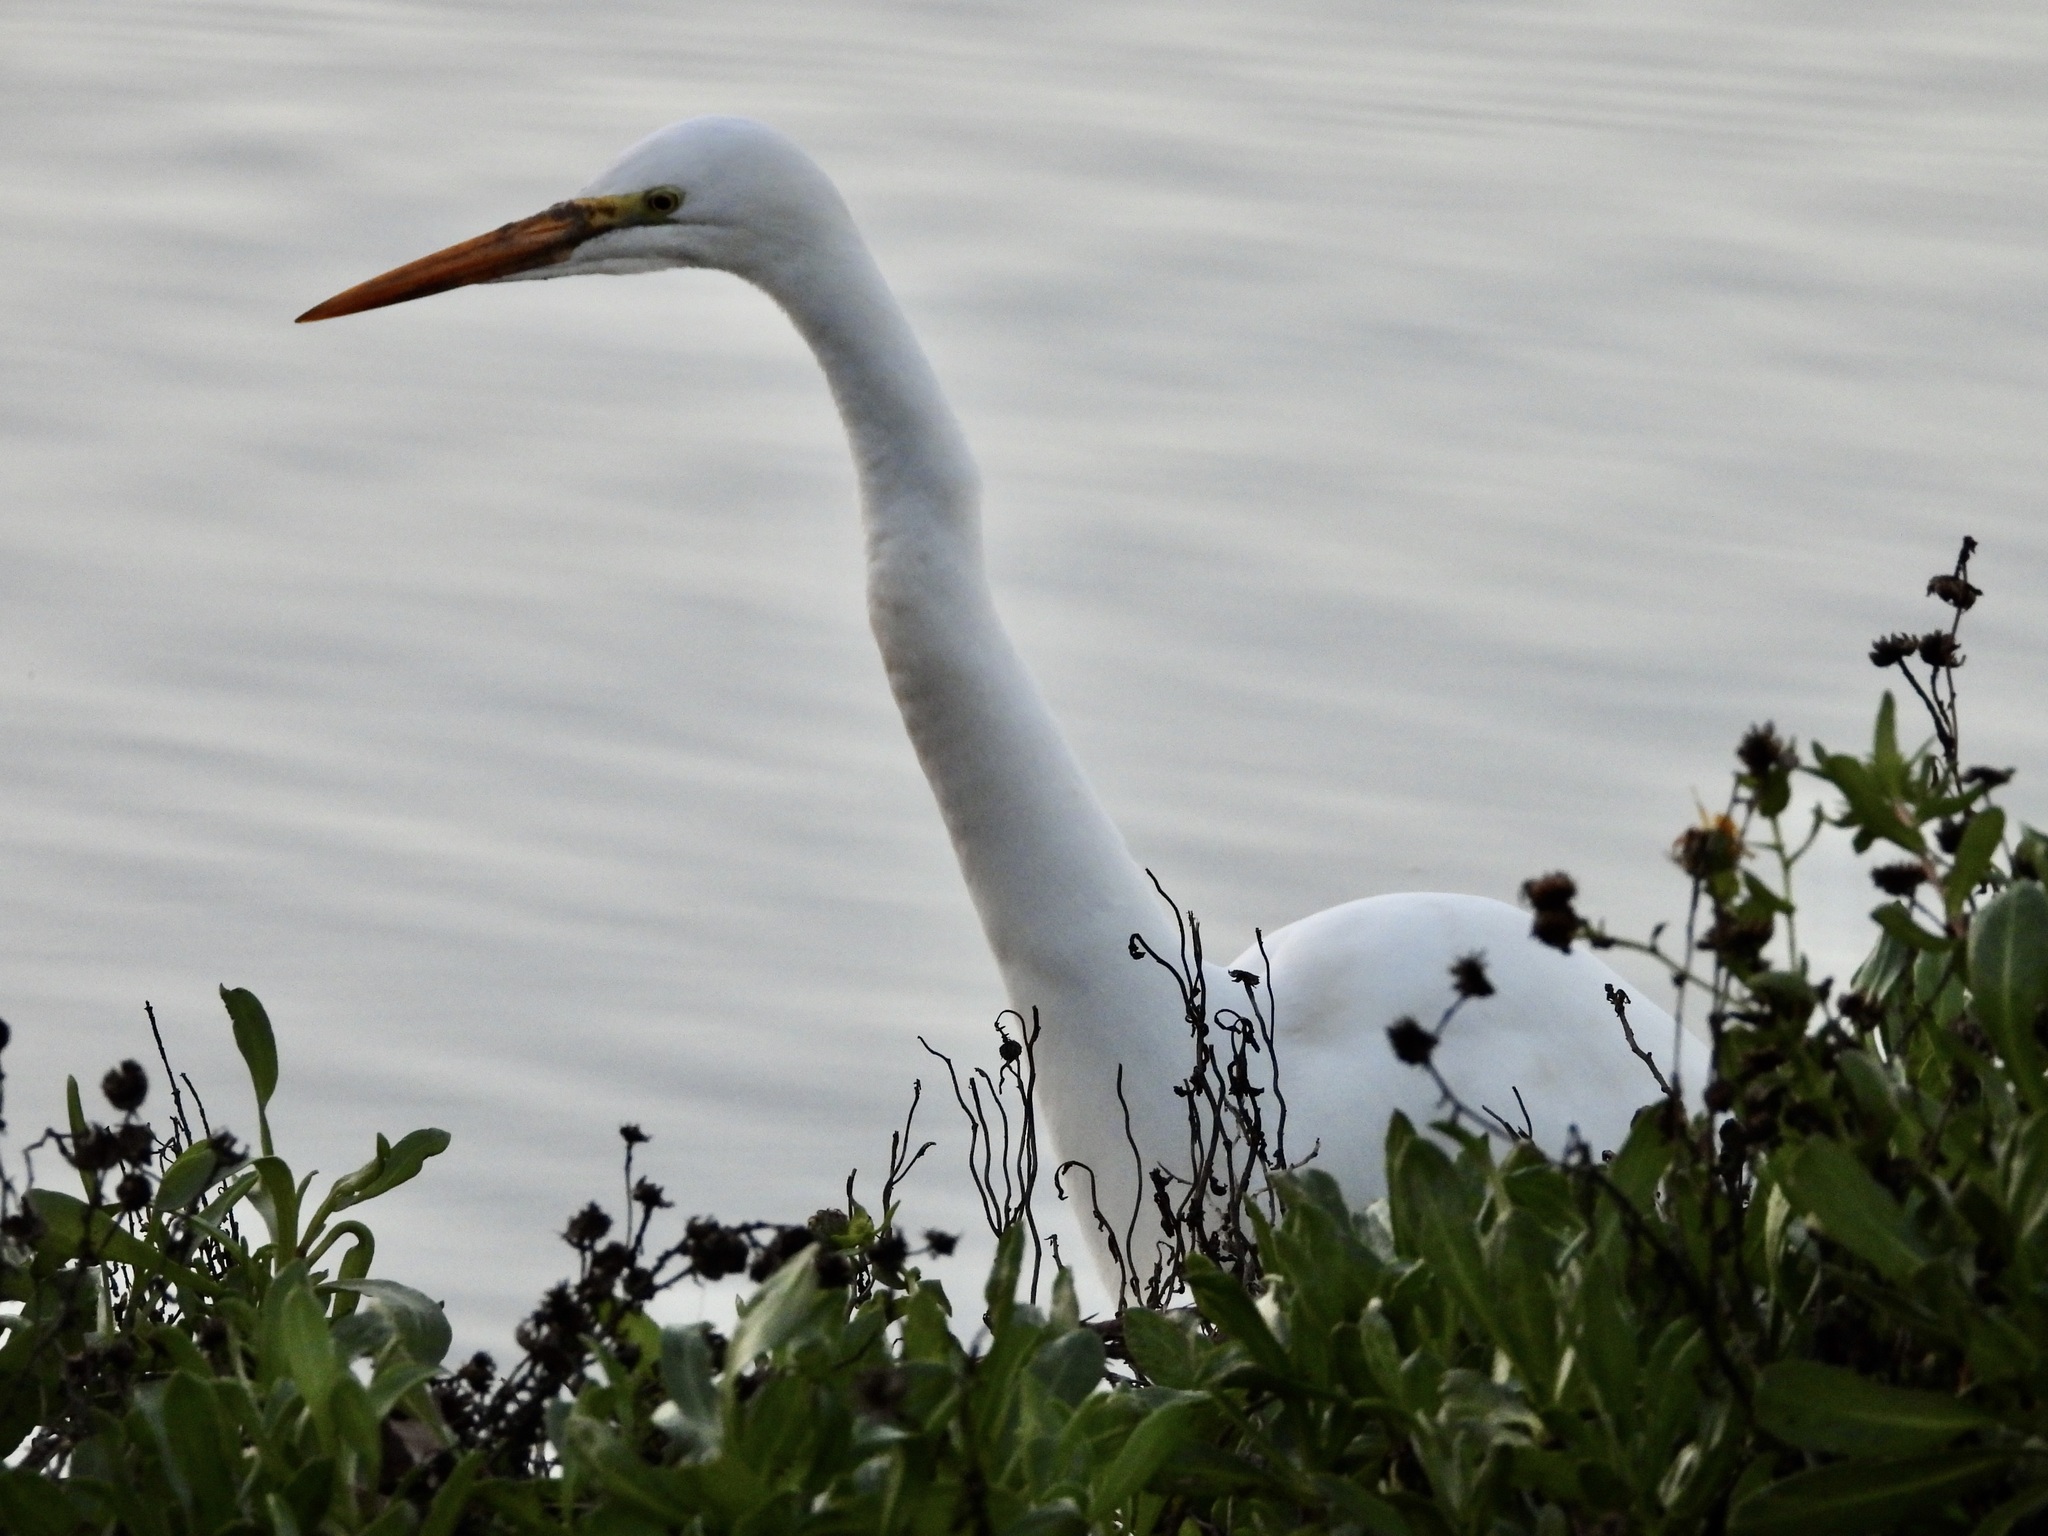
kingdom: Animalia
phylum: Chordata
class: Aves
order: Pelecaniformes
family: Ardeidae
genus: Ardea
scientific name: Ardea alba
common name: Great egret
